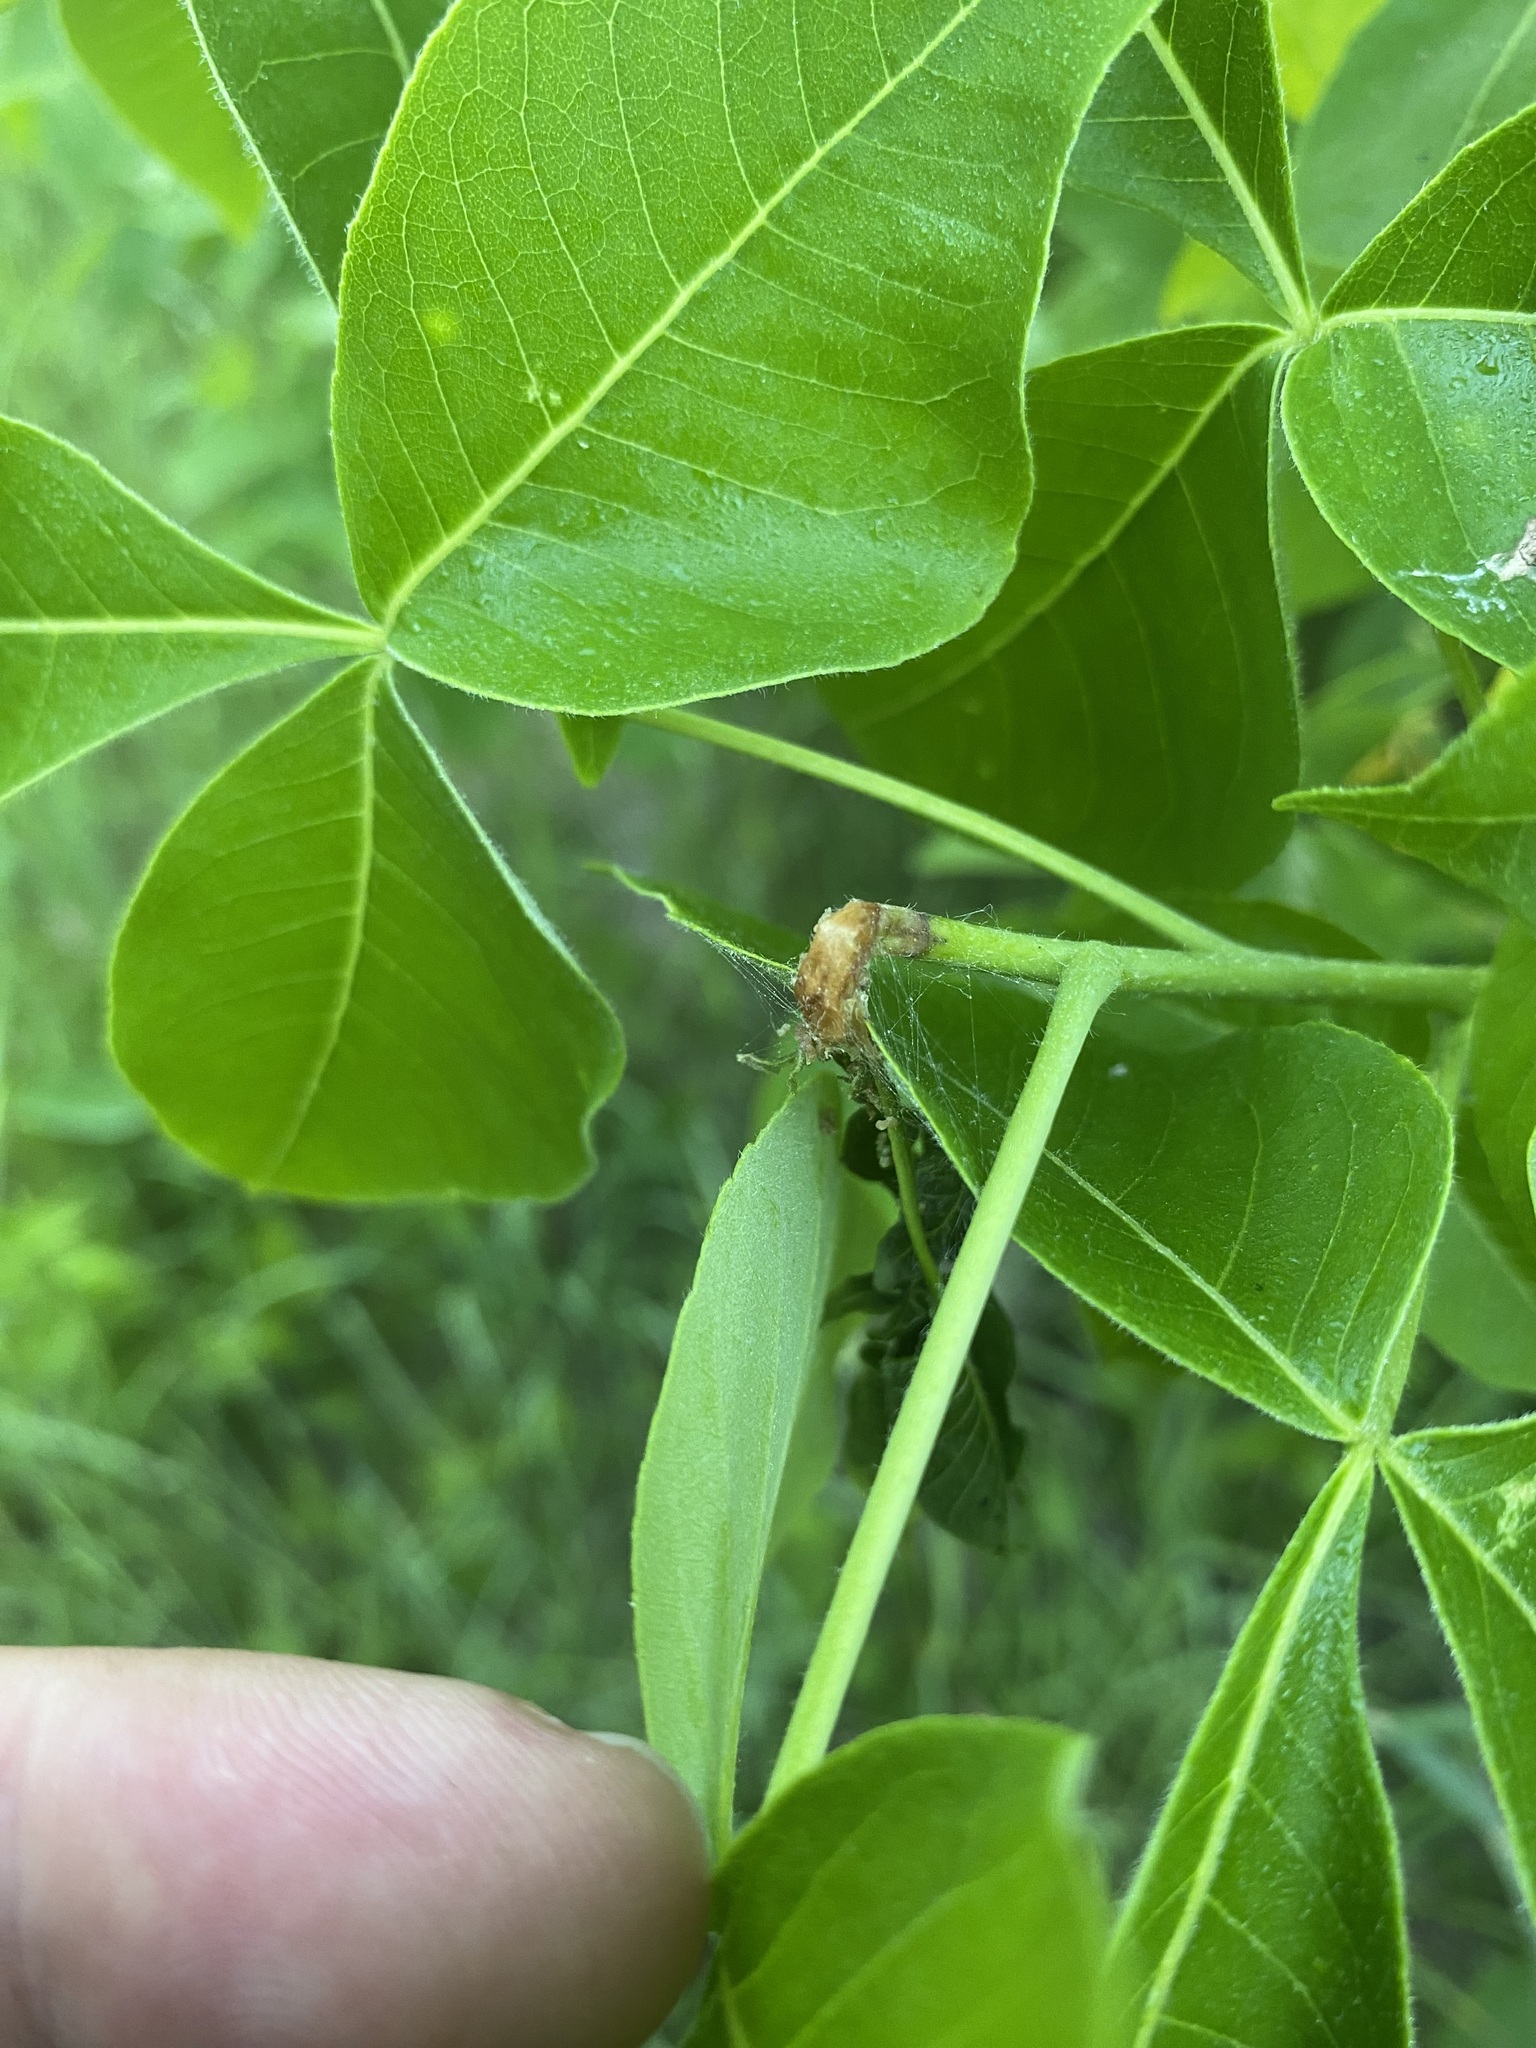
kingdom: Animalia
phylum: Arthropoda
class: Insecta
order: Lepidoptera
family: Praydidae
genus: Prays
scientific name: Prays atomocella
